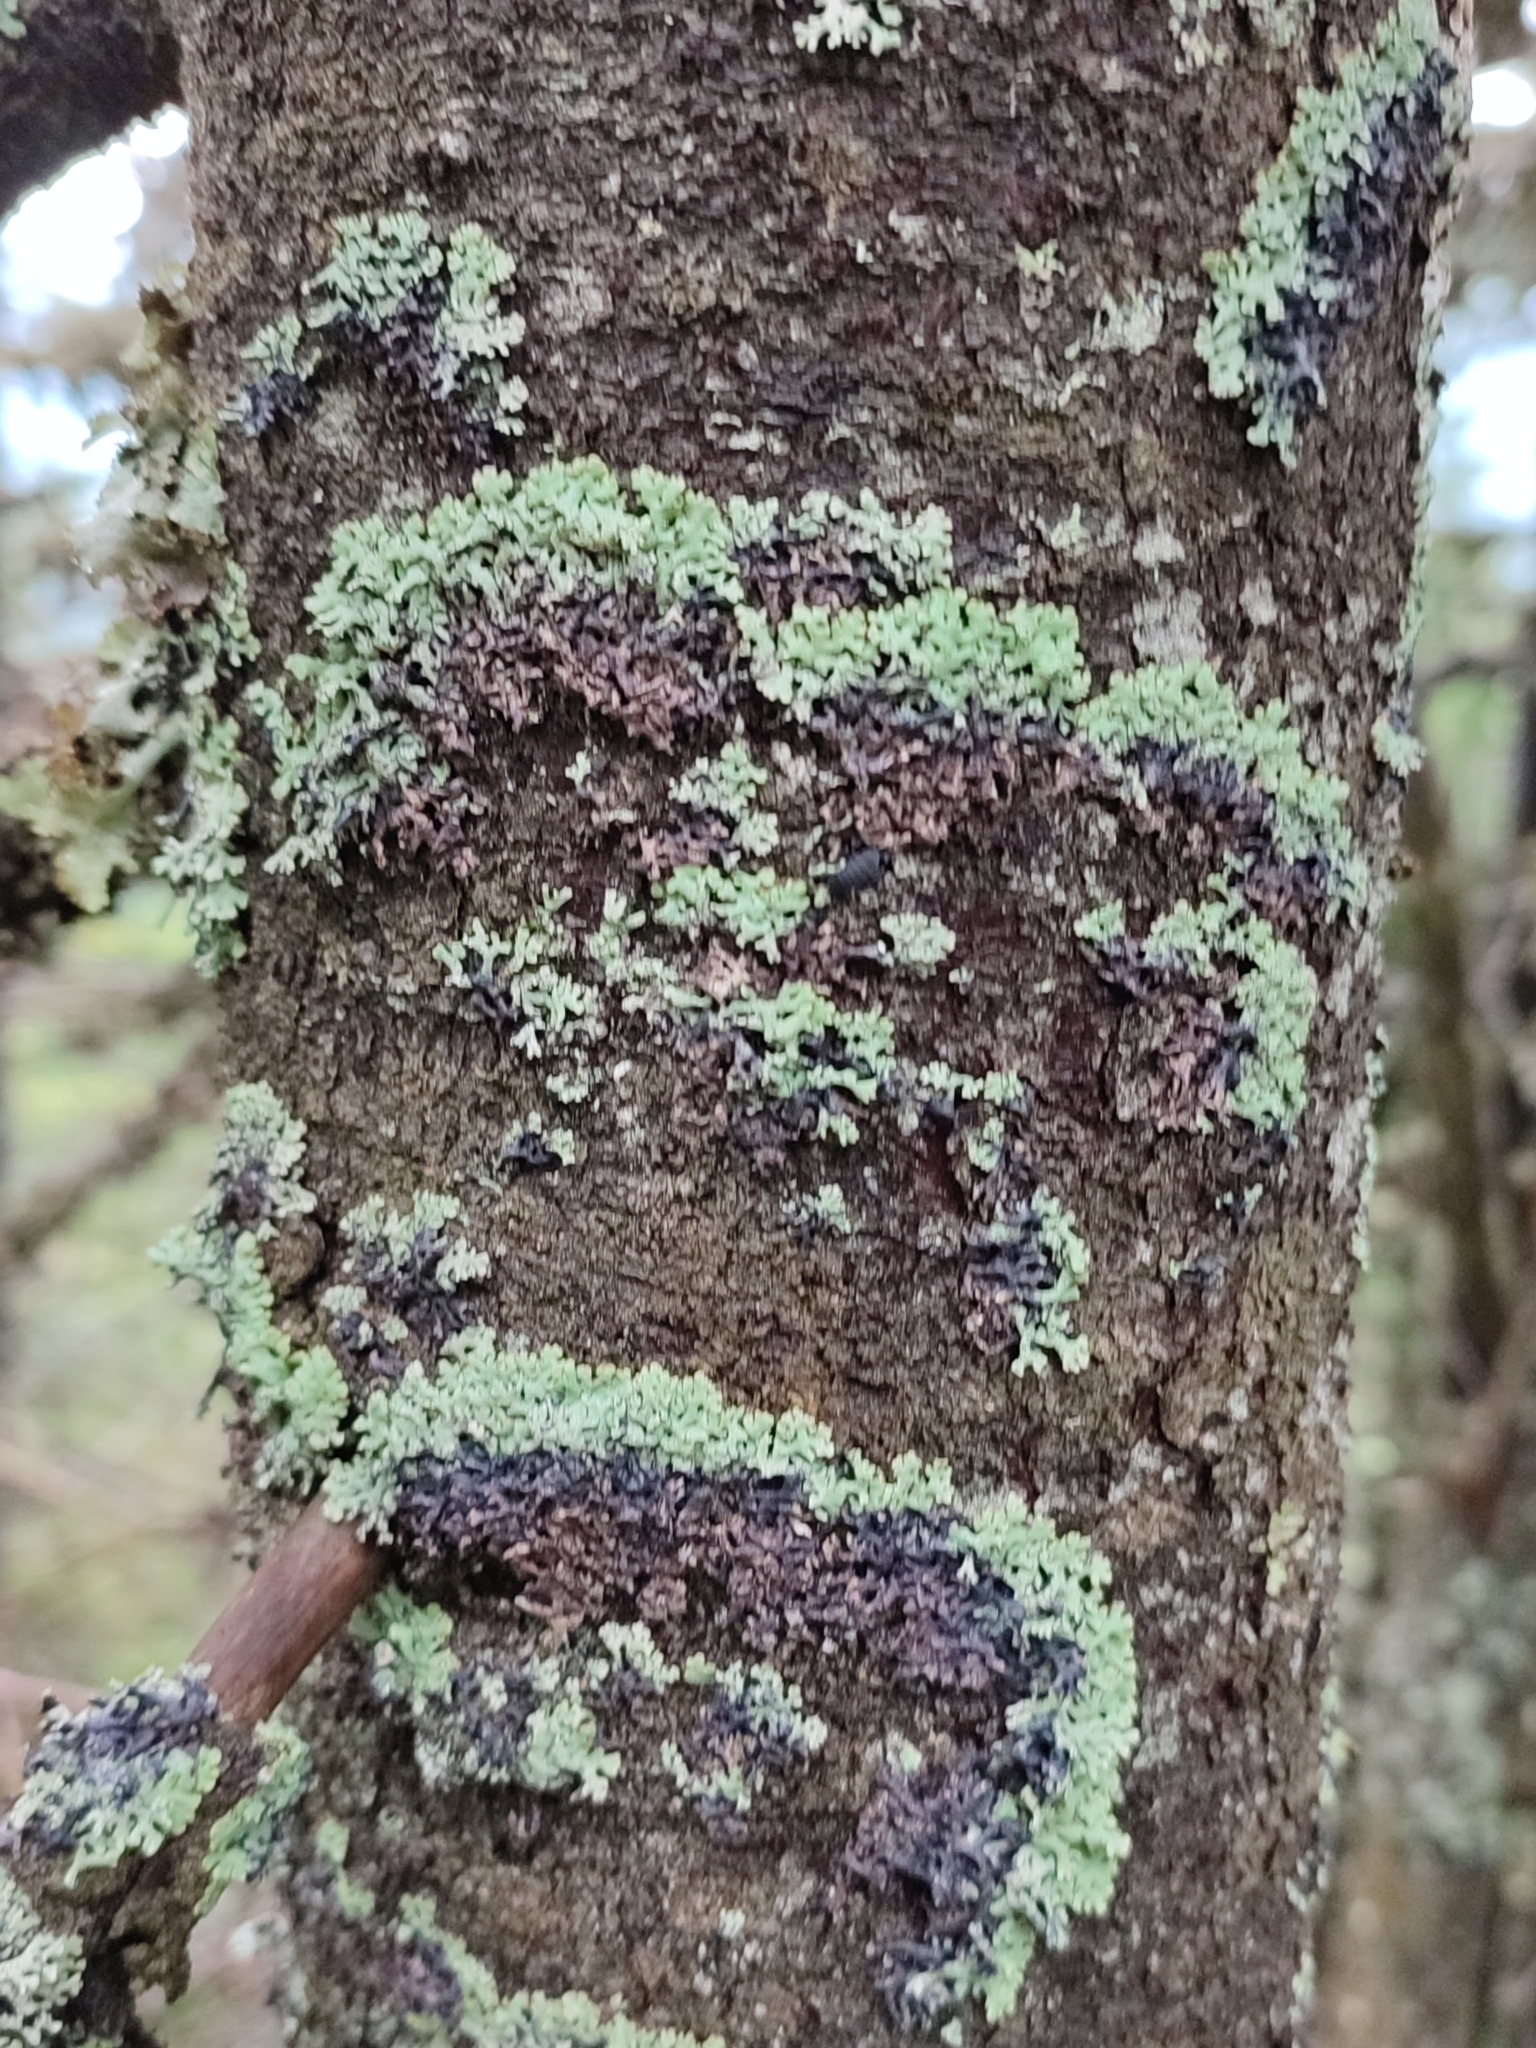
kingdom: Fungi
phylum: Ascomycota
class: Lecanoromycetes
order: Lecanorales
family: Parmeliaceae
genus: Menegazzia
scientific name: Menegazzia terebrata
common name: Magic treeflute lichen
